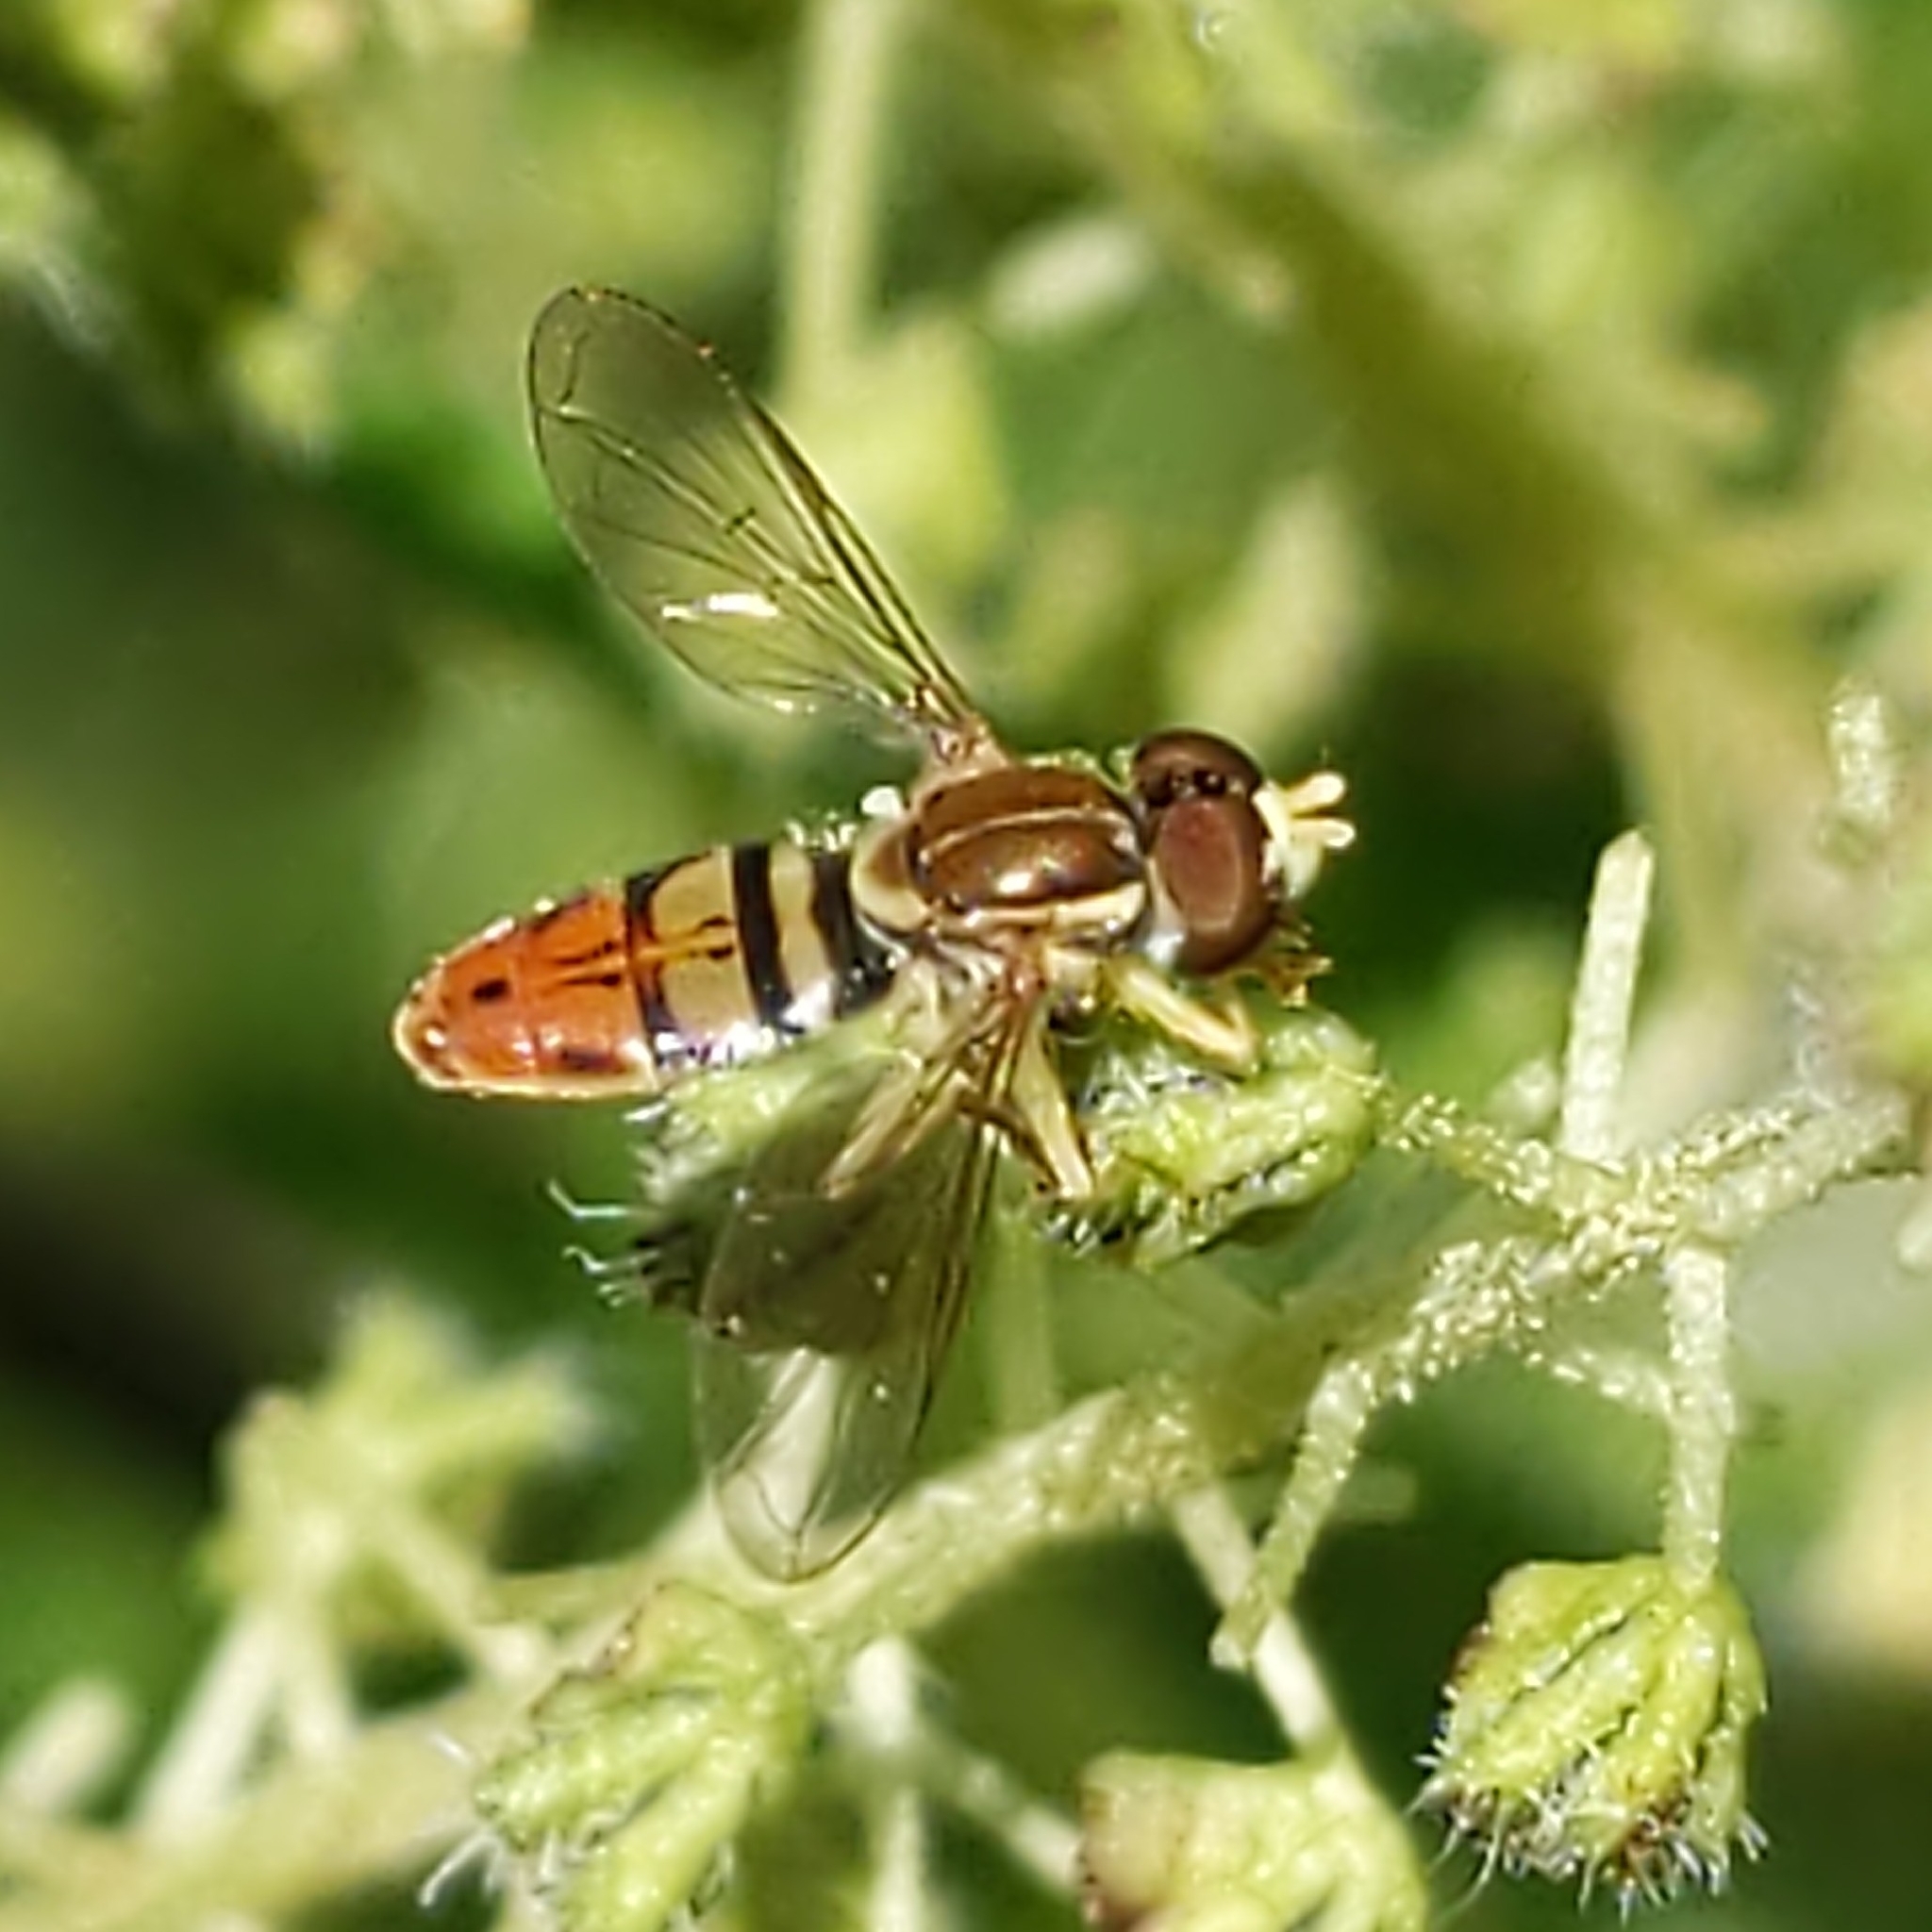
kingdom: Animalia
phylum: Arthropoda
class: Insecta
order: Diptera
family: Syrphidae
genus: Toxomerus
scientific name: Toxomerus marginatus
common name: Syrphid fly
